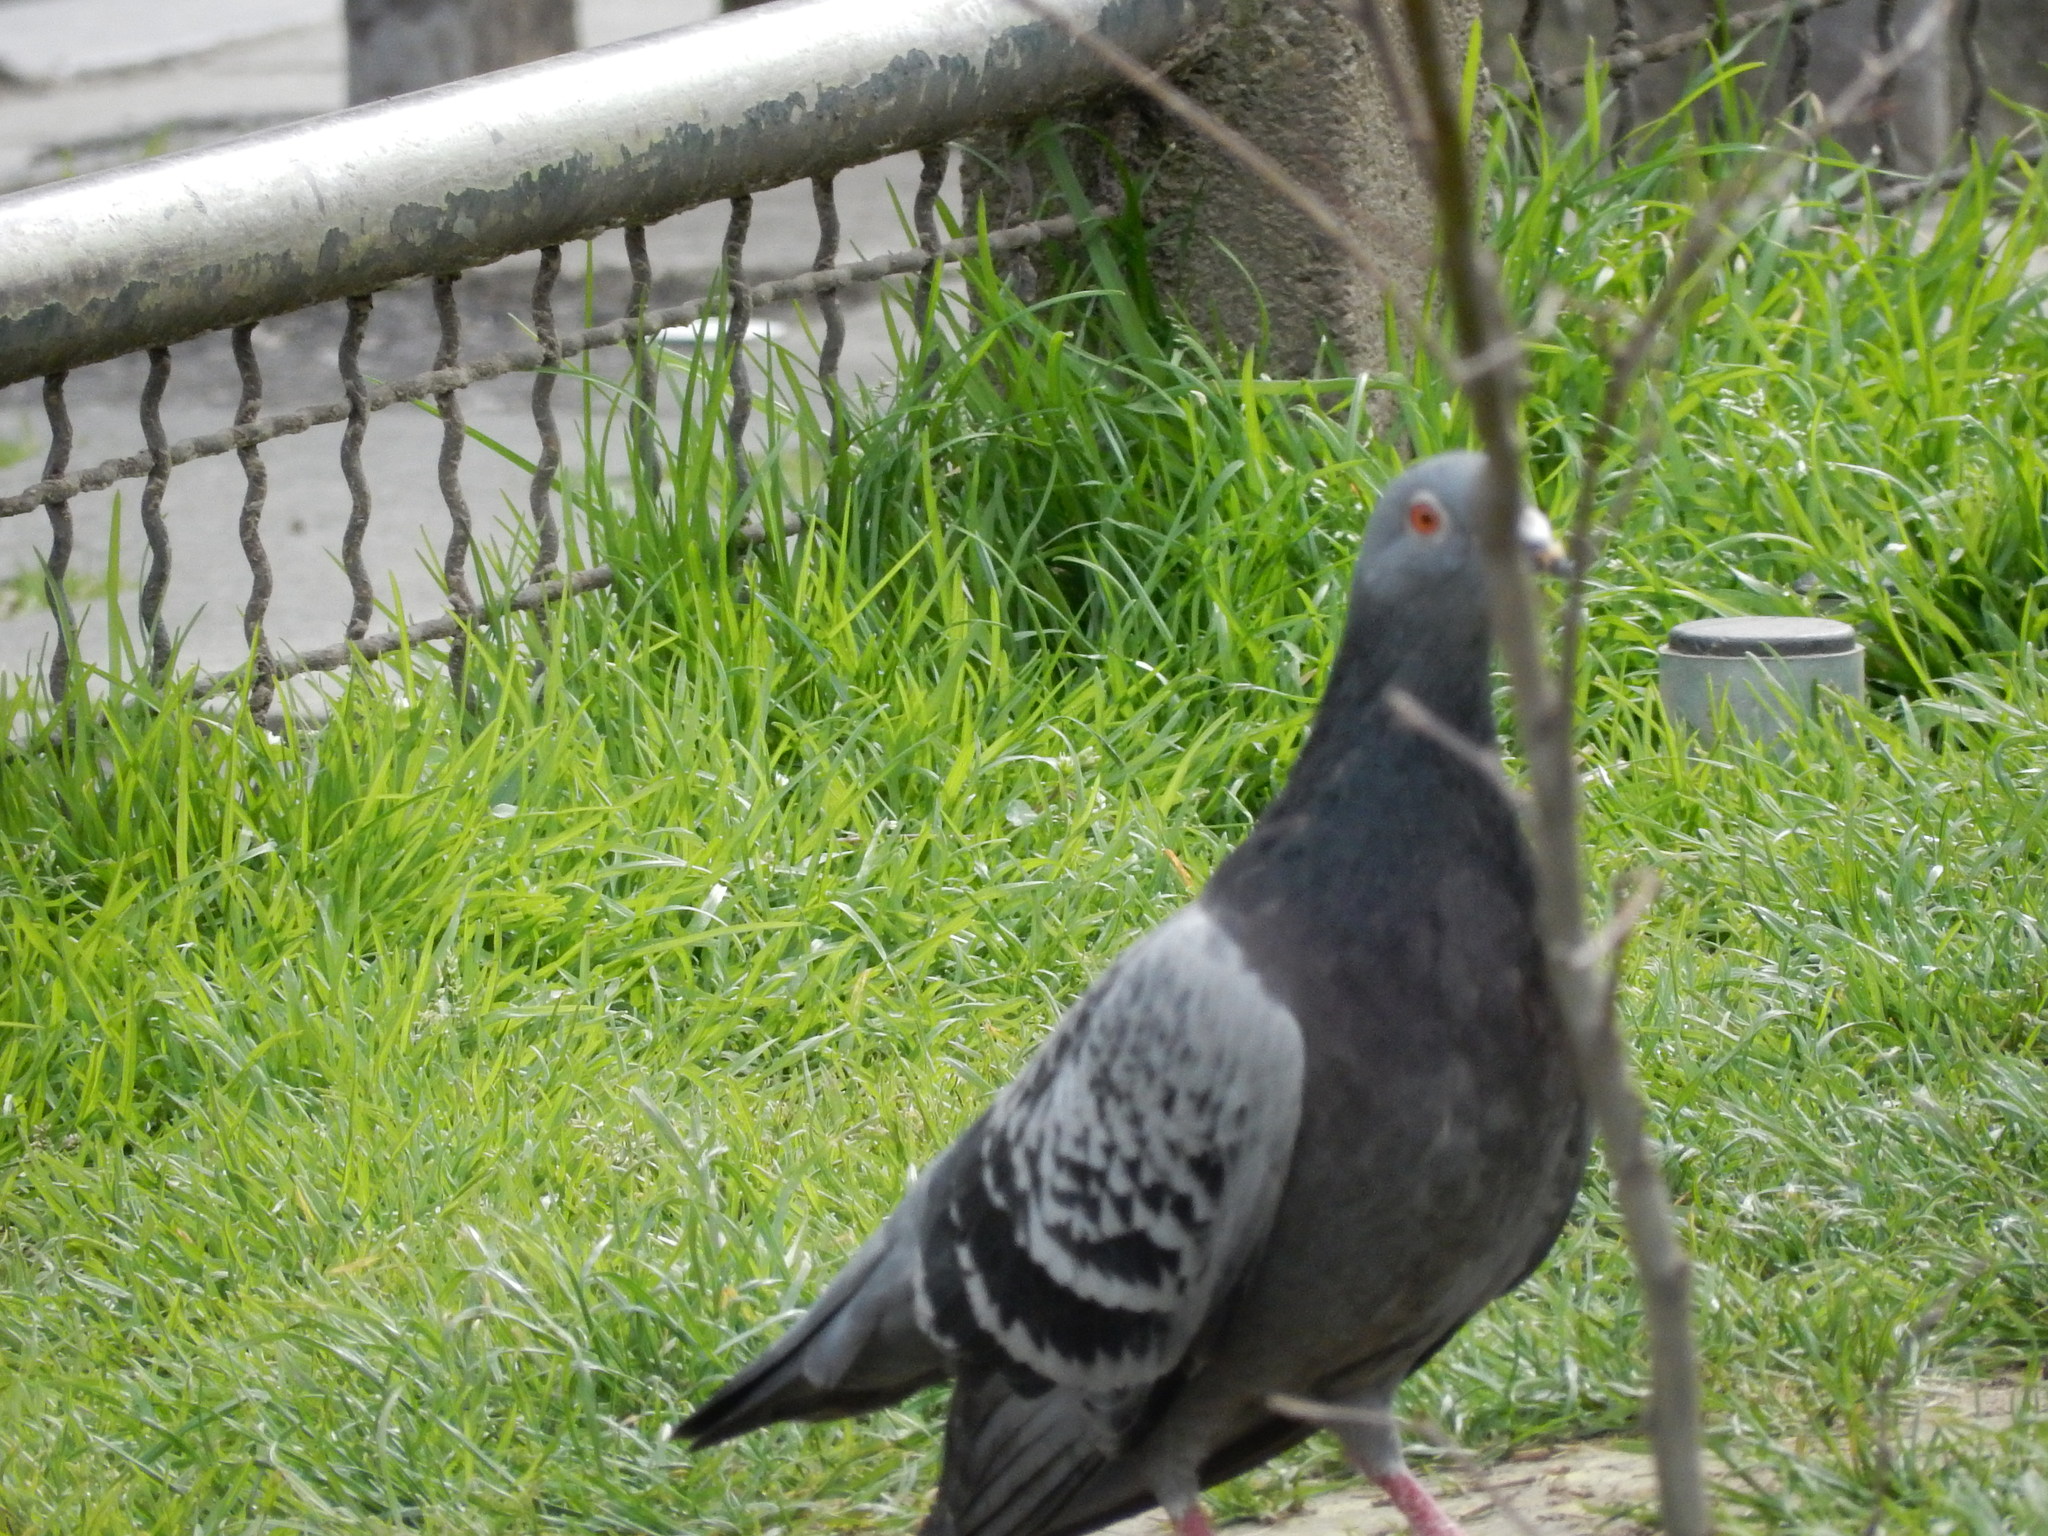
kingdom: Animalia
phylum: Chordata
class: Aves
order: Columbiformes
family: Columbidae
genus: Columba
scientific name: Columba livia
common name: Rock pigeon
